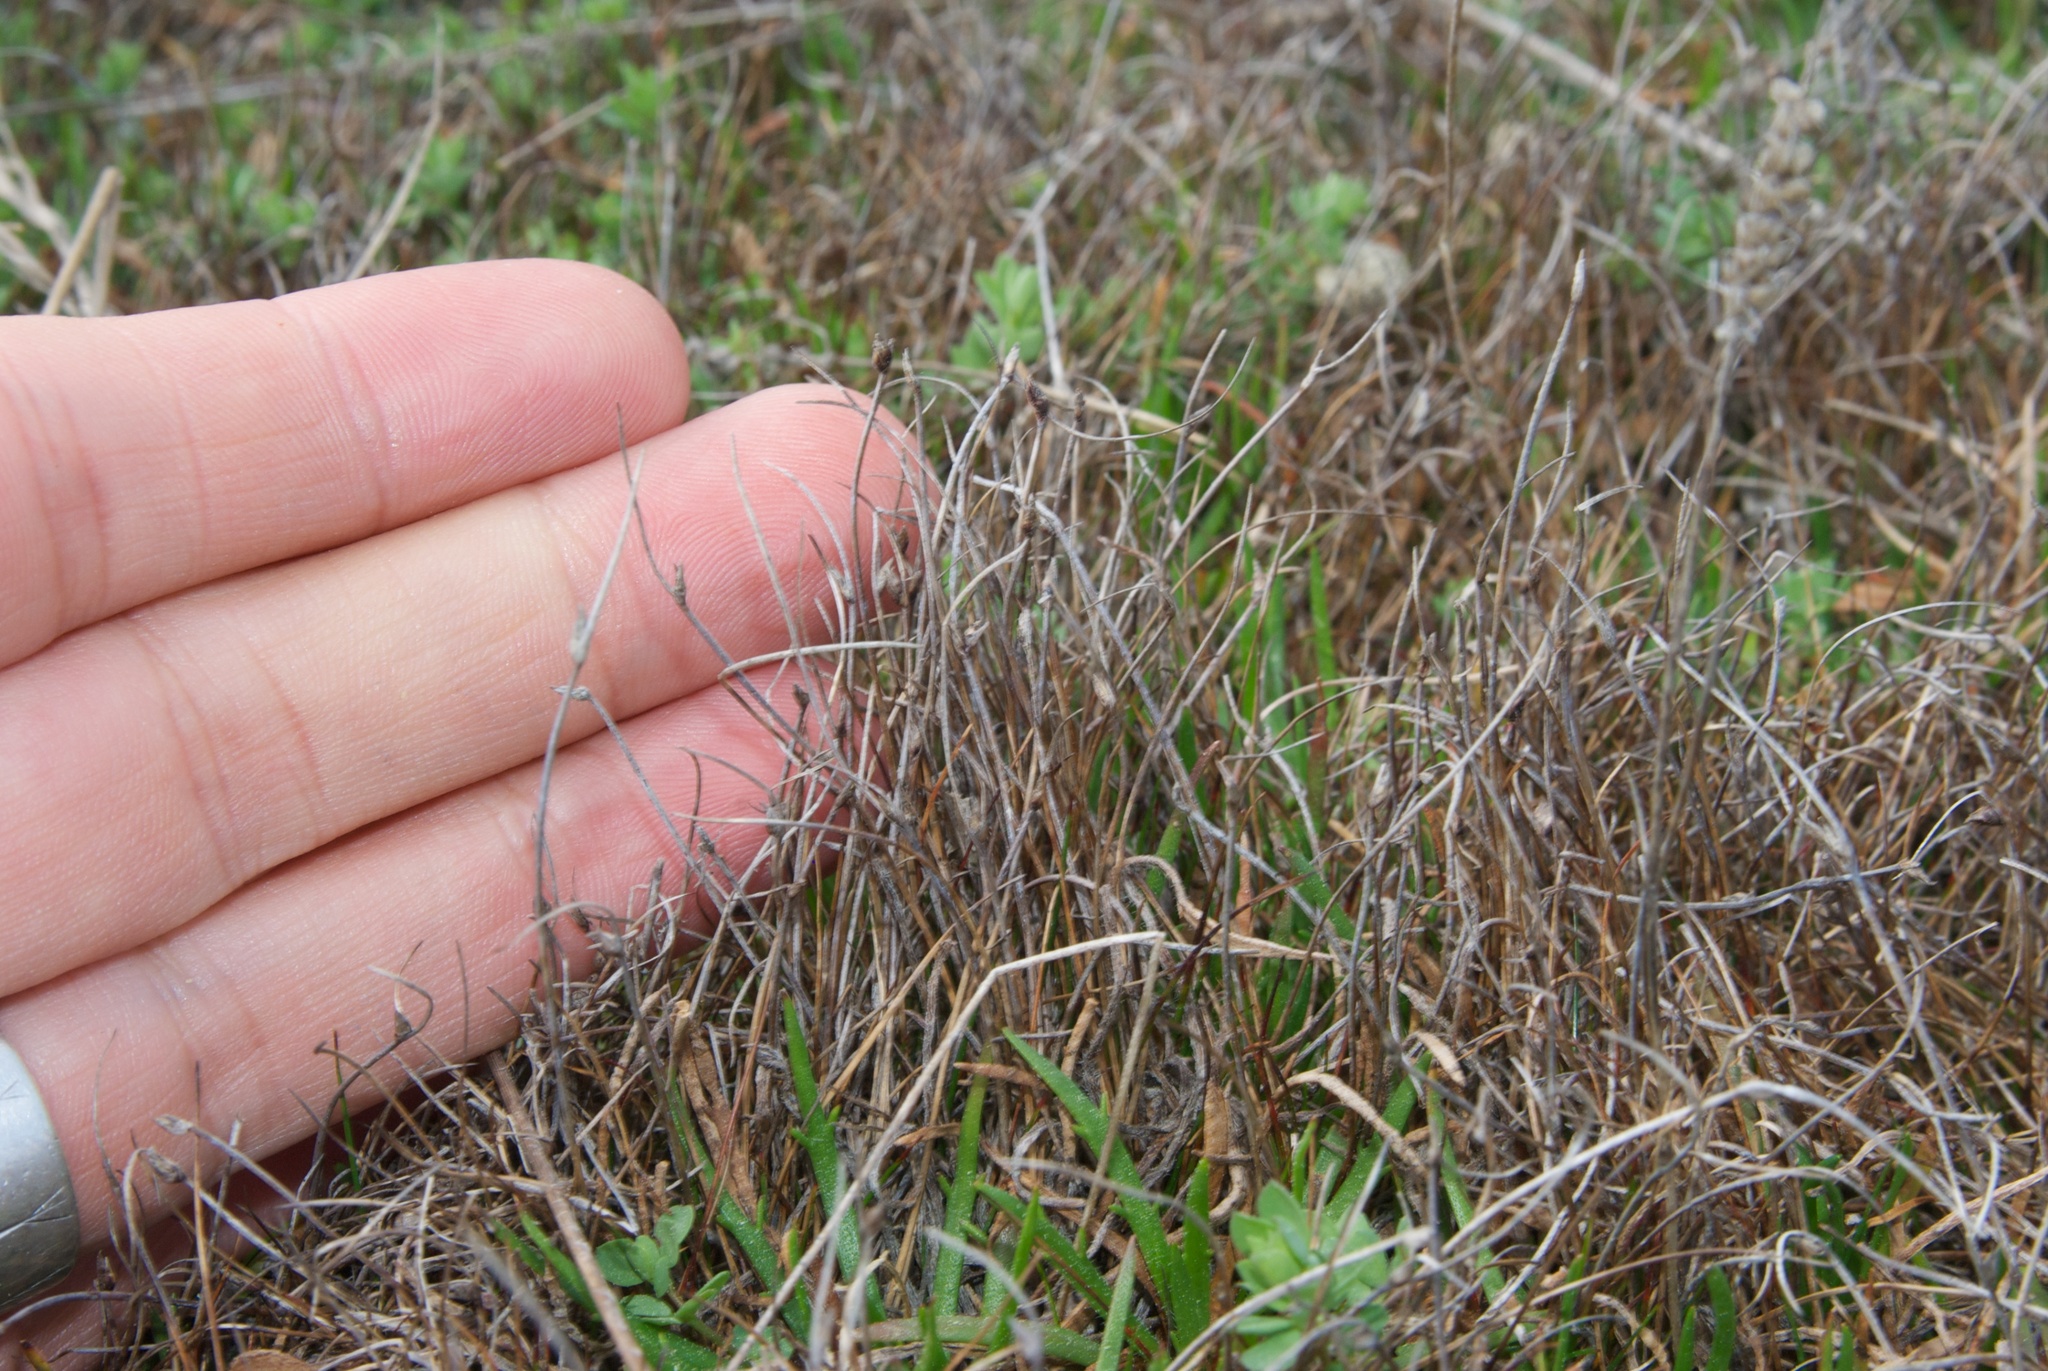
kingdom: Plantae
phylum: Tracheophyta
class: Liliopsida
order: Poales
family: Cyperaceae
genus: Schoenus
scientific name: Schoenus nitens
